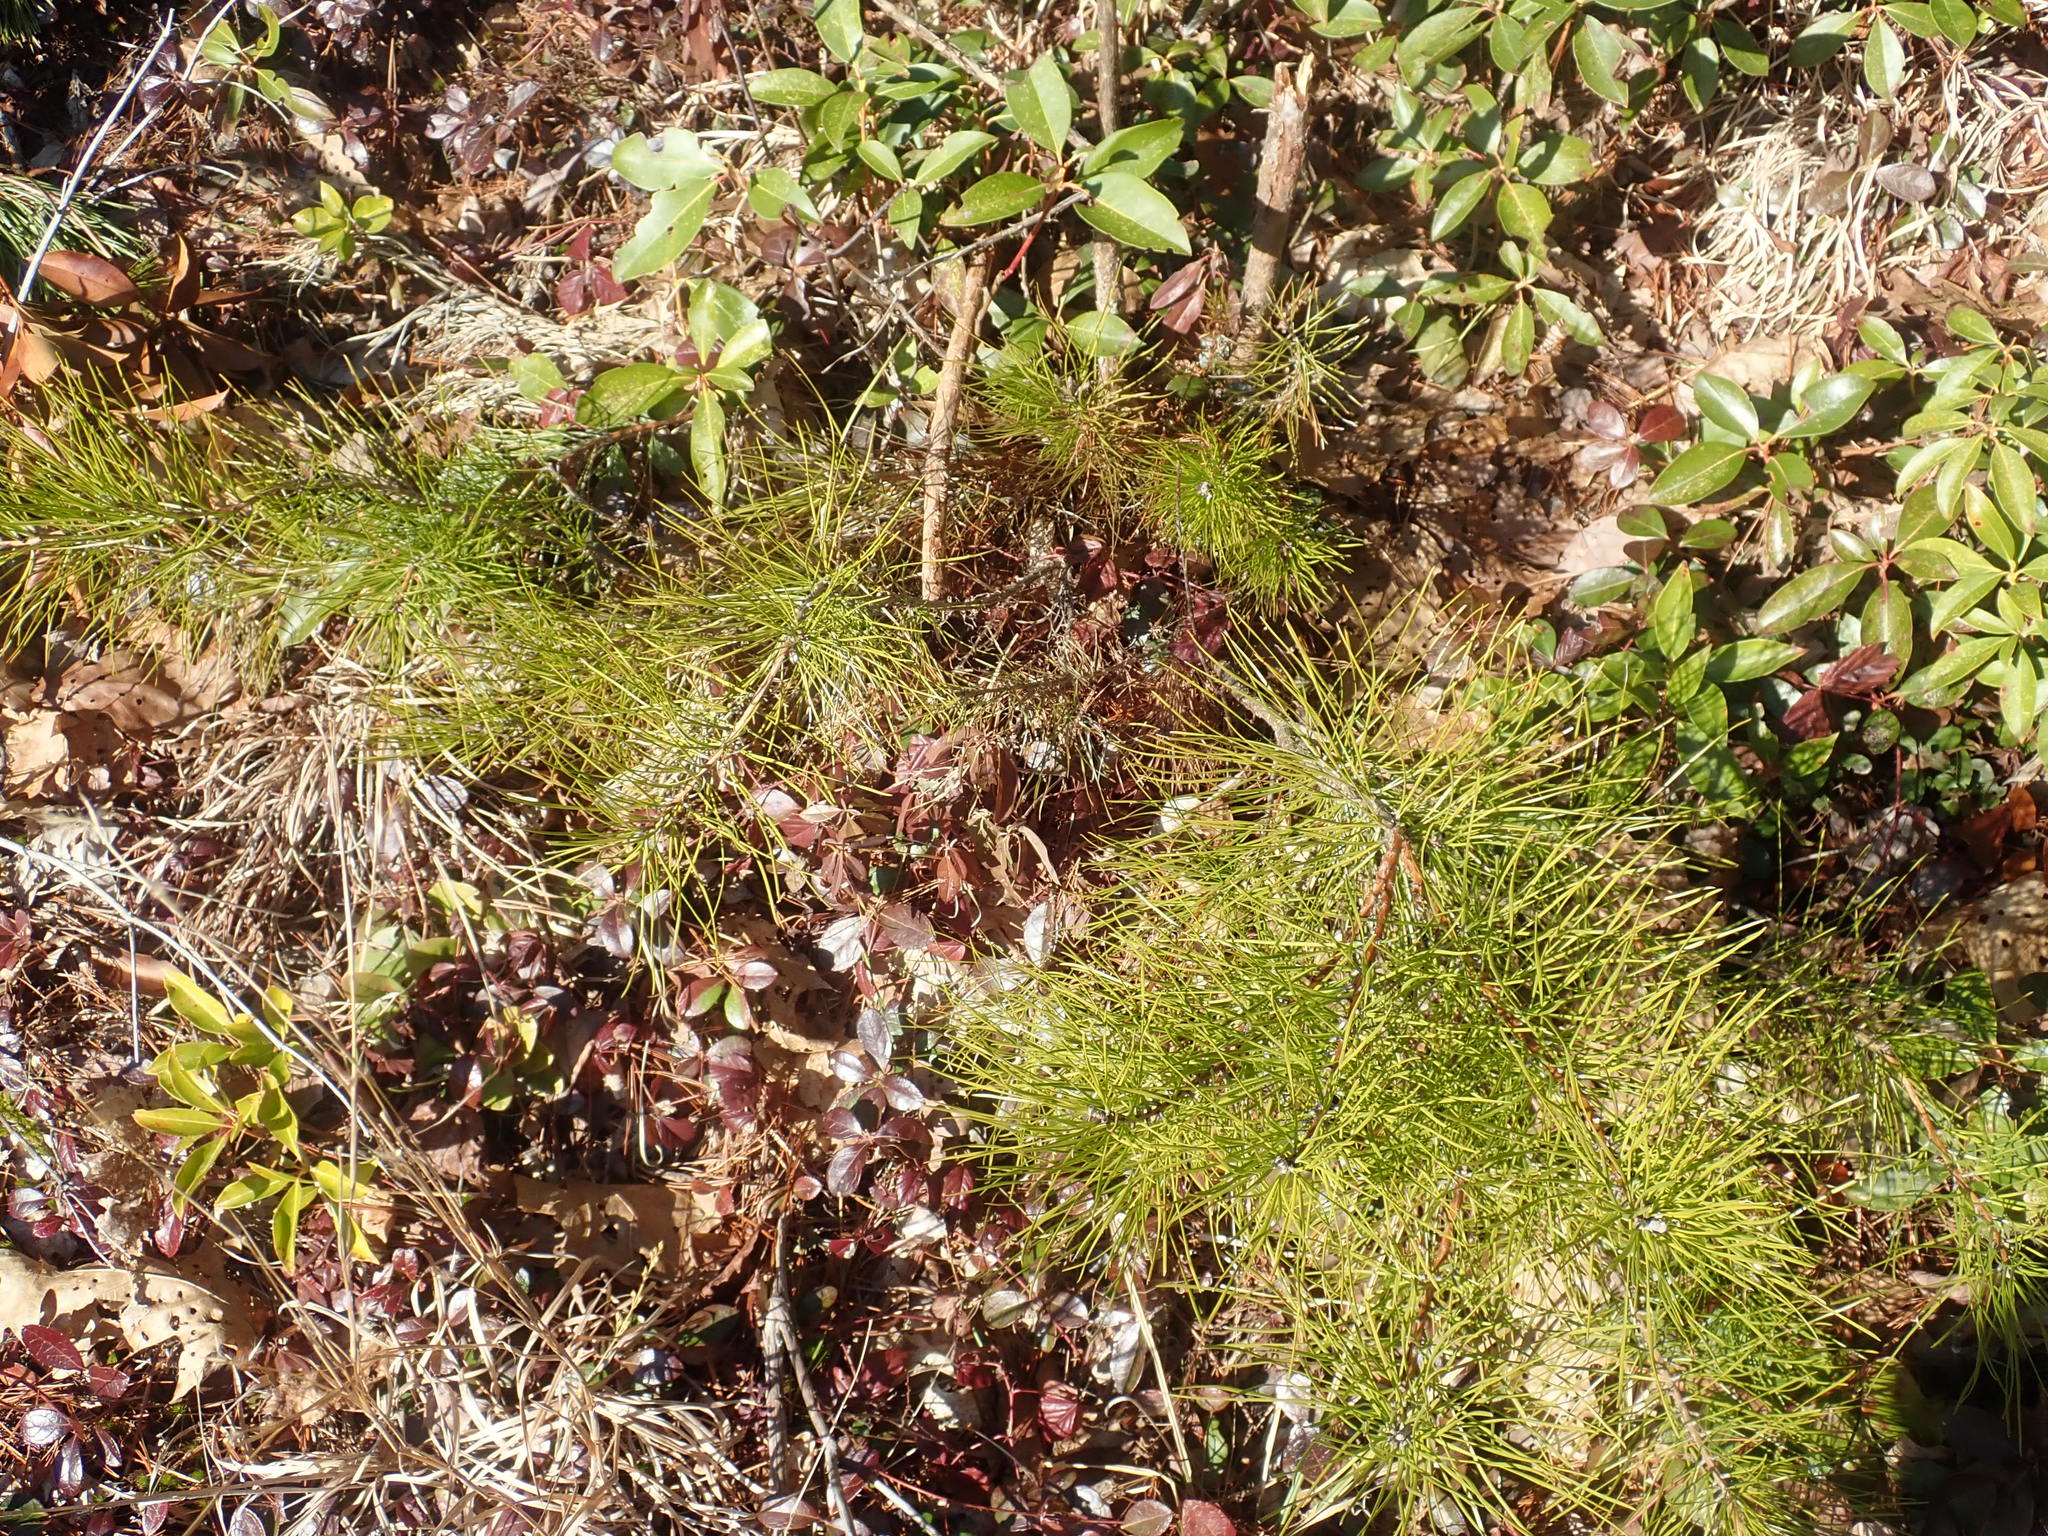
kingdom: Plantae
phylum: Tracheophyta
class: Pinopsida
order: Pinales
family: Pinaceae
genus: Pinus
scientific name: Pinus rigida
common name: Pitch pine
